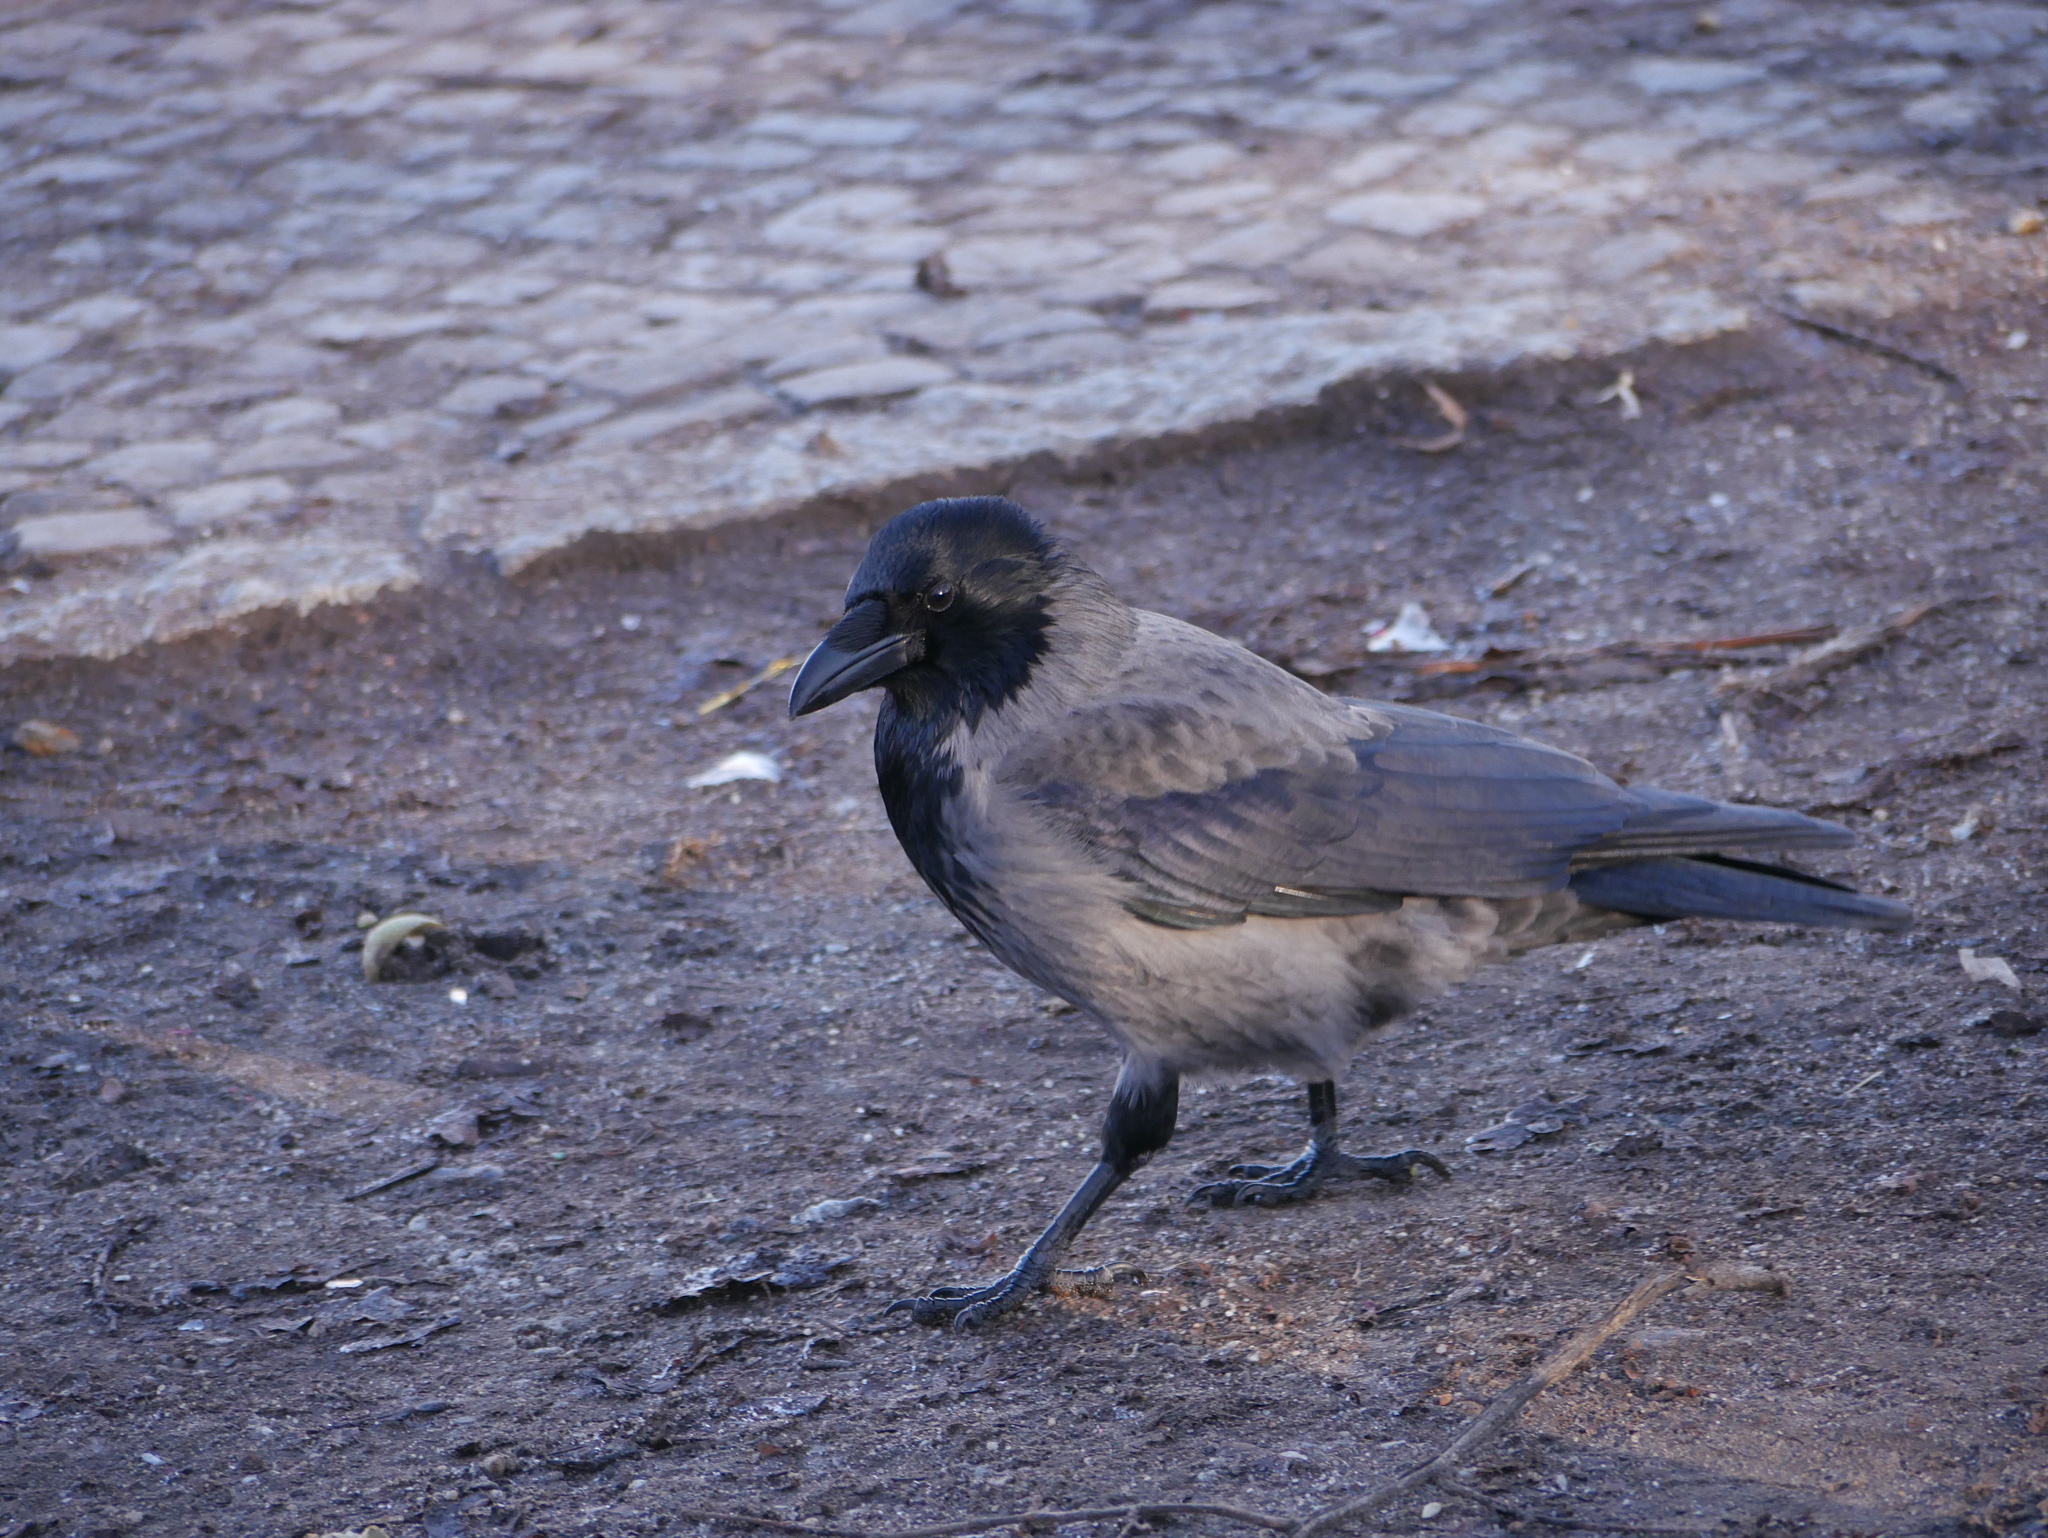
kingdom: Animalia
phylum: Chordata
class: Aves
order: Passeriformes
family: Corvidae
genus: Corvus
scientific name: Corvus
